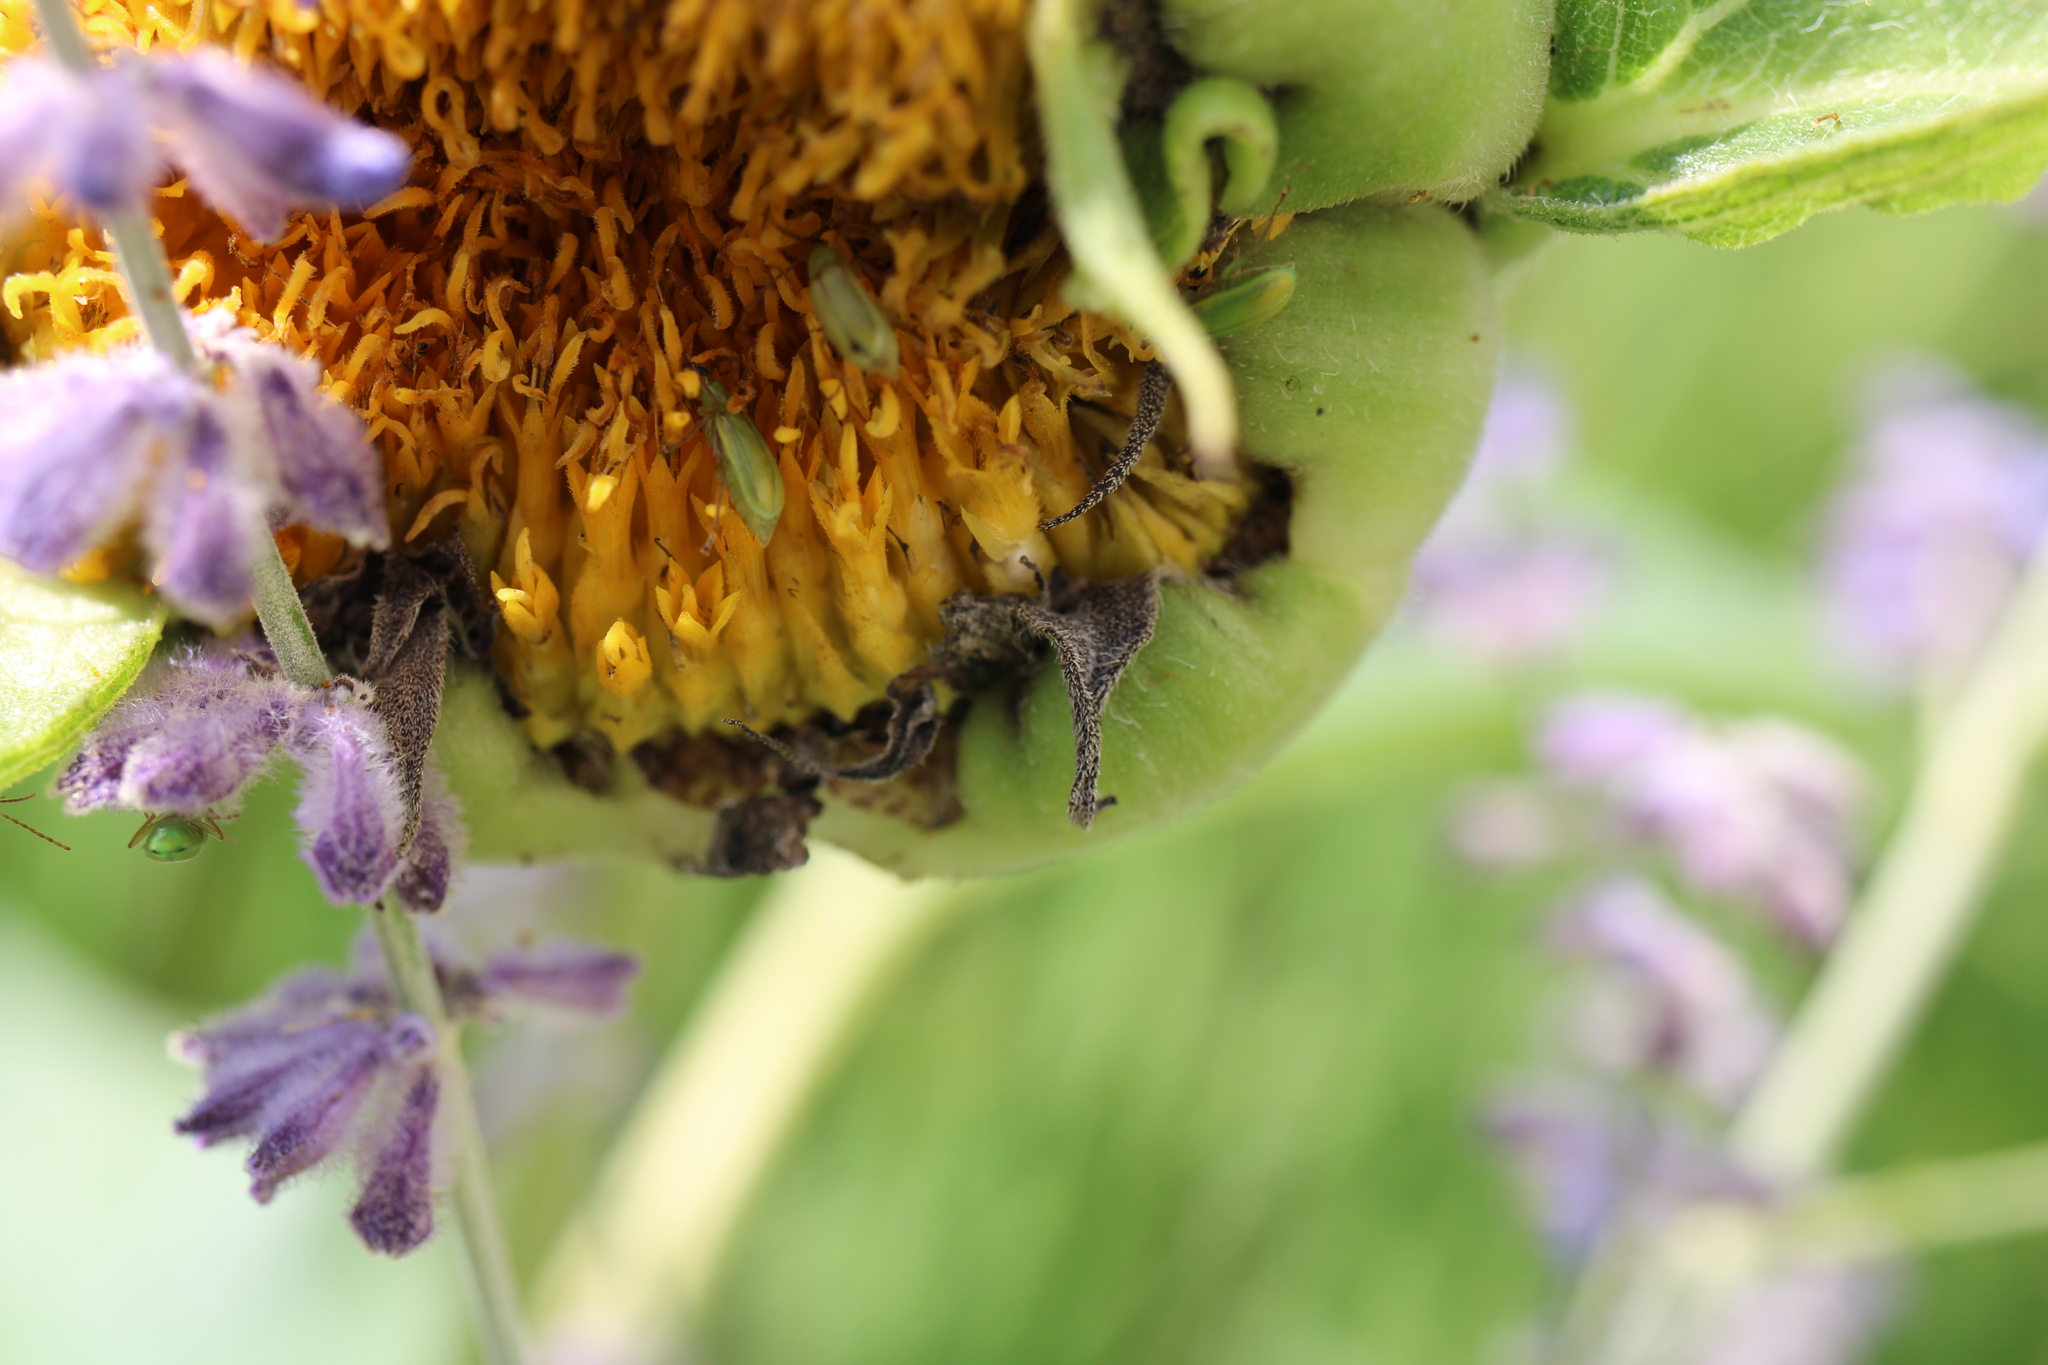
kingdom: Animalia
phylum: Arthropoda
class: Insecta
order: Coleoptera
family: Chrysomelidae
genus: Diabrotica
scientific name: Diabrotica barberi
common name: Northern corn rootworm
